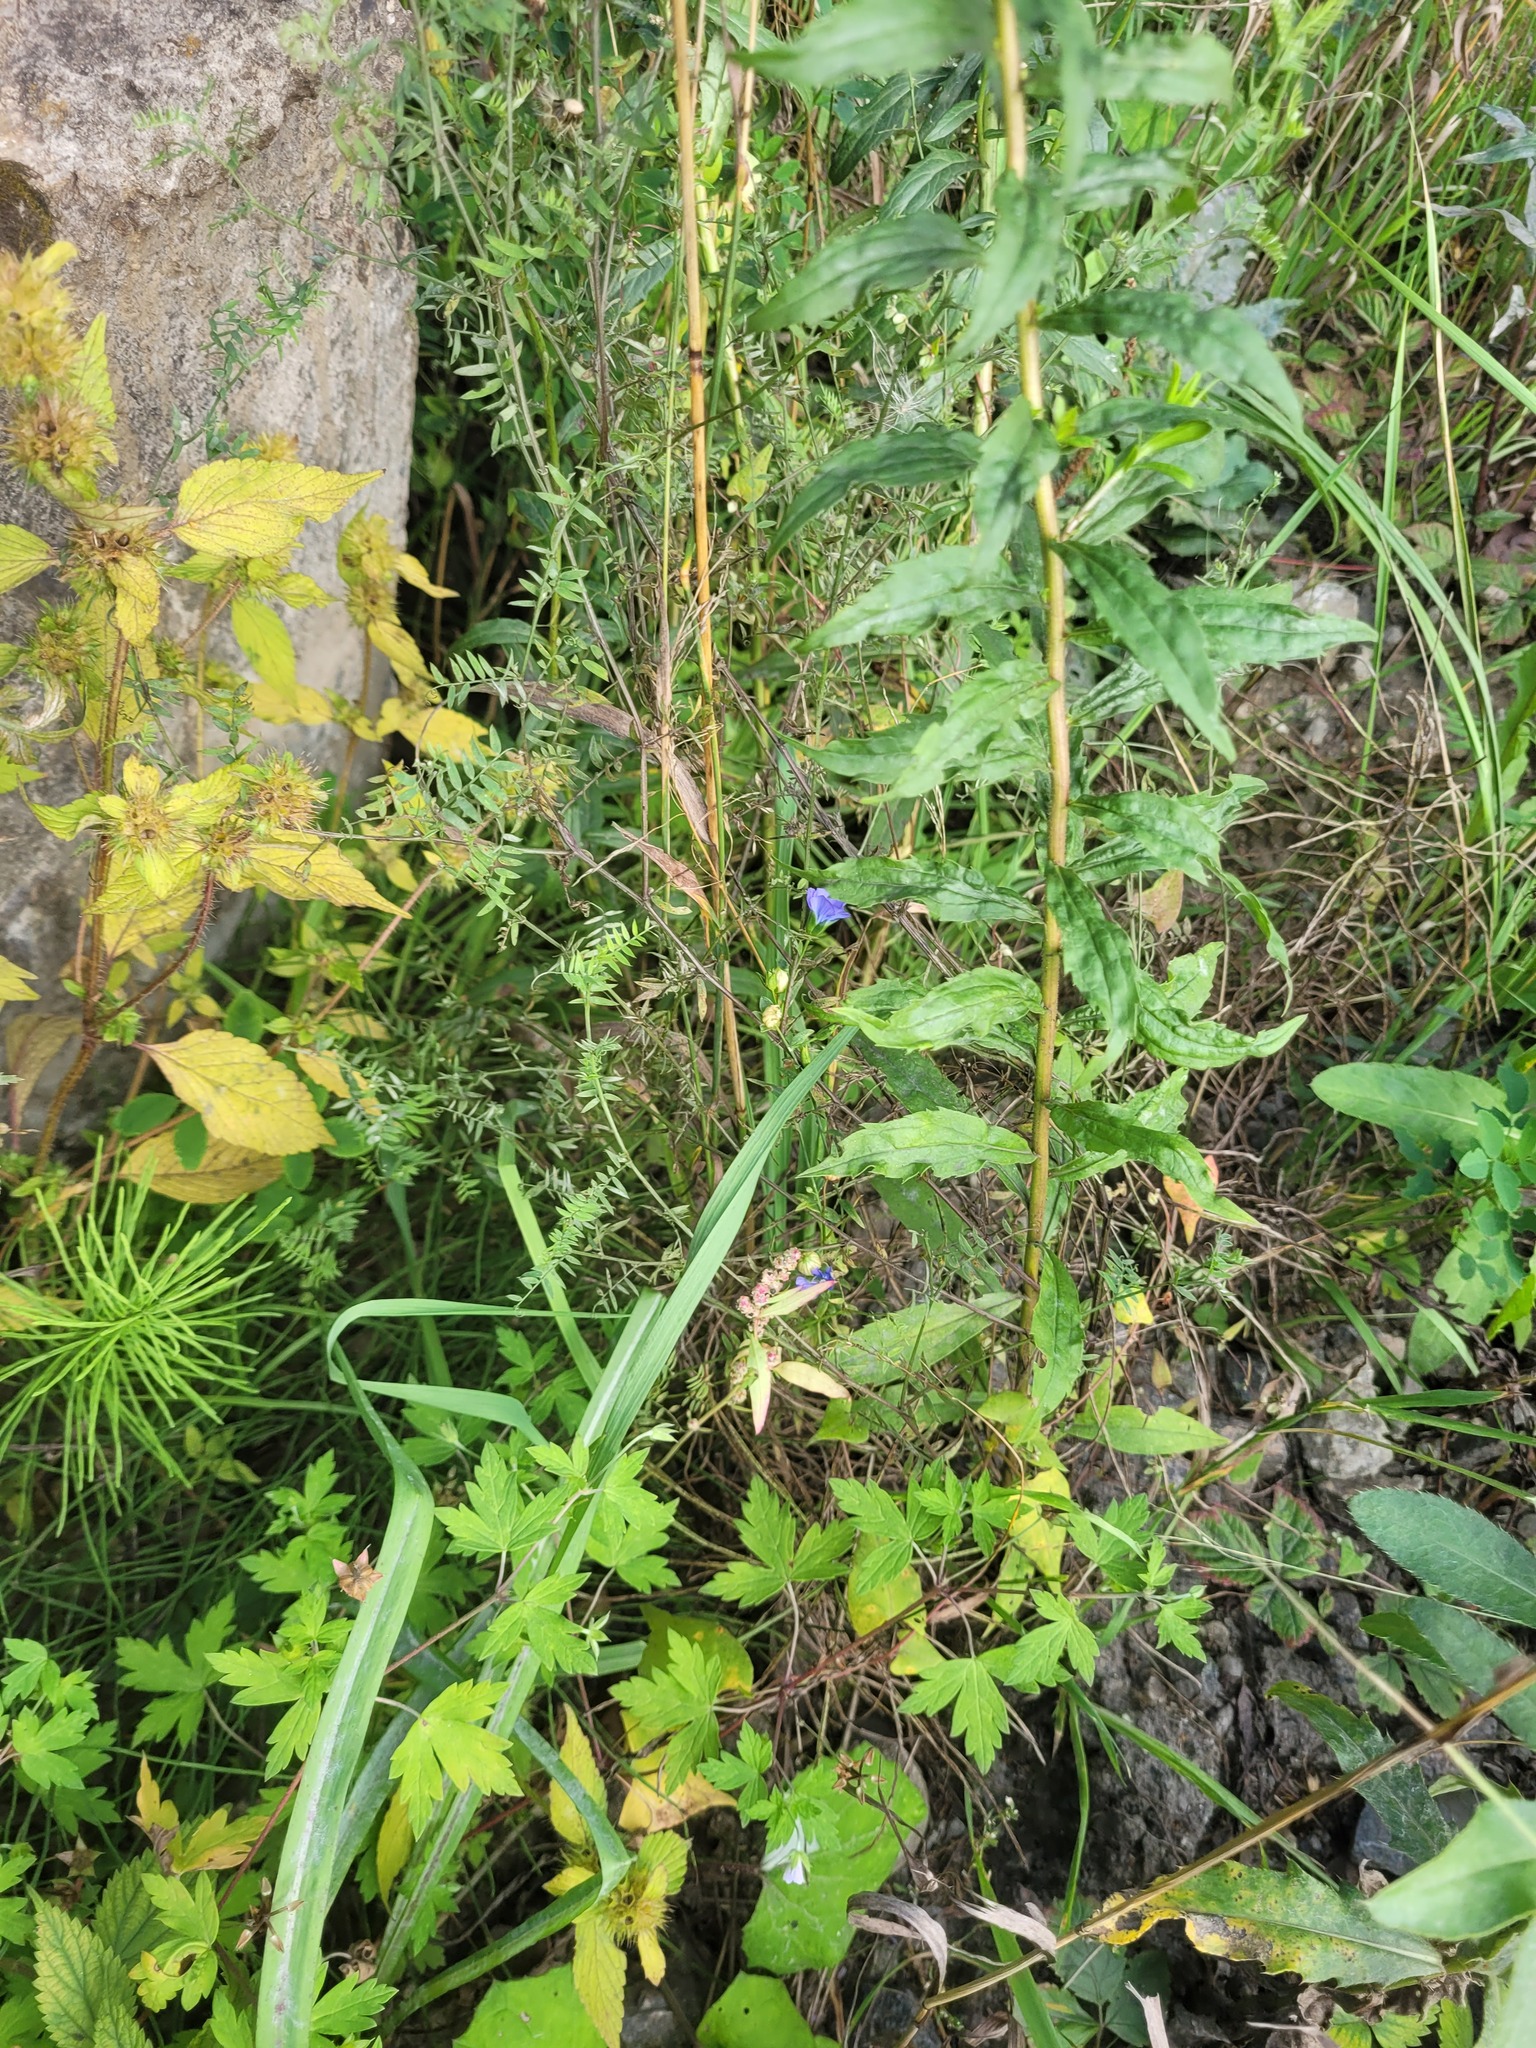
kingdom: Plantae
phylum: Tracheophyta
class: Magnoliopsida
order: Asterales
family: Asteraceae
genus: Solidago
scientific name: Solidago canadensis
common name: Canada goldenrod
